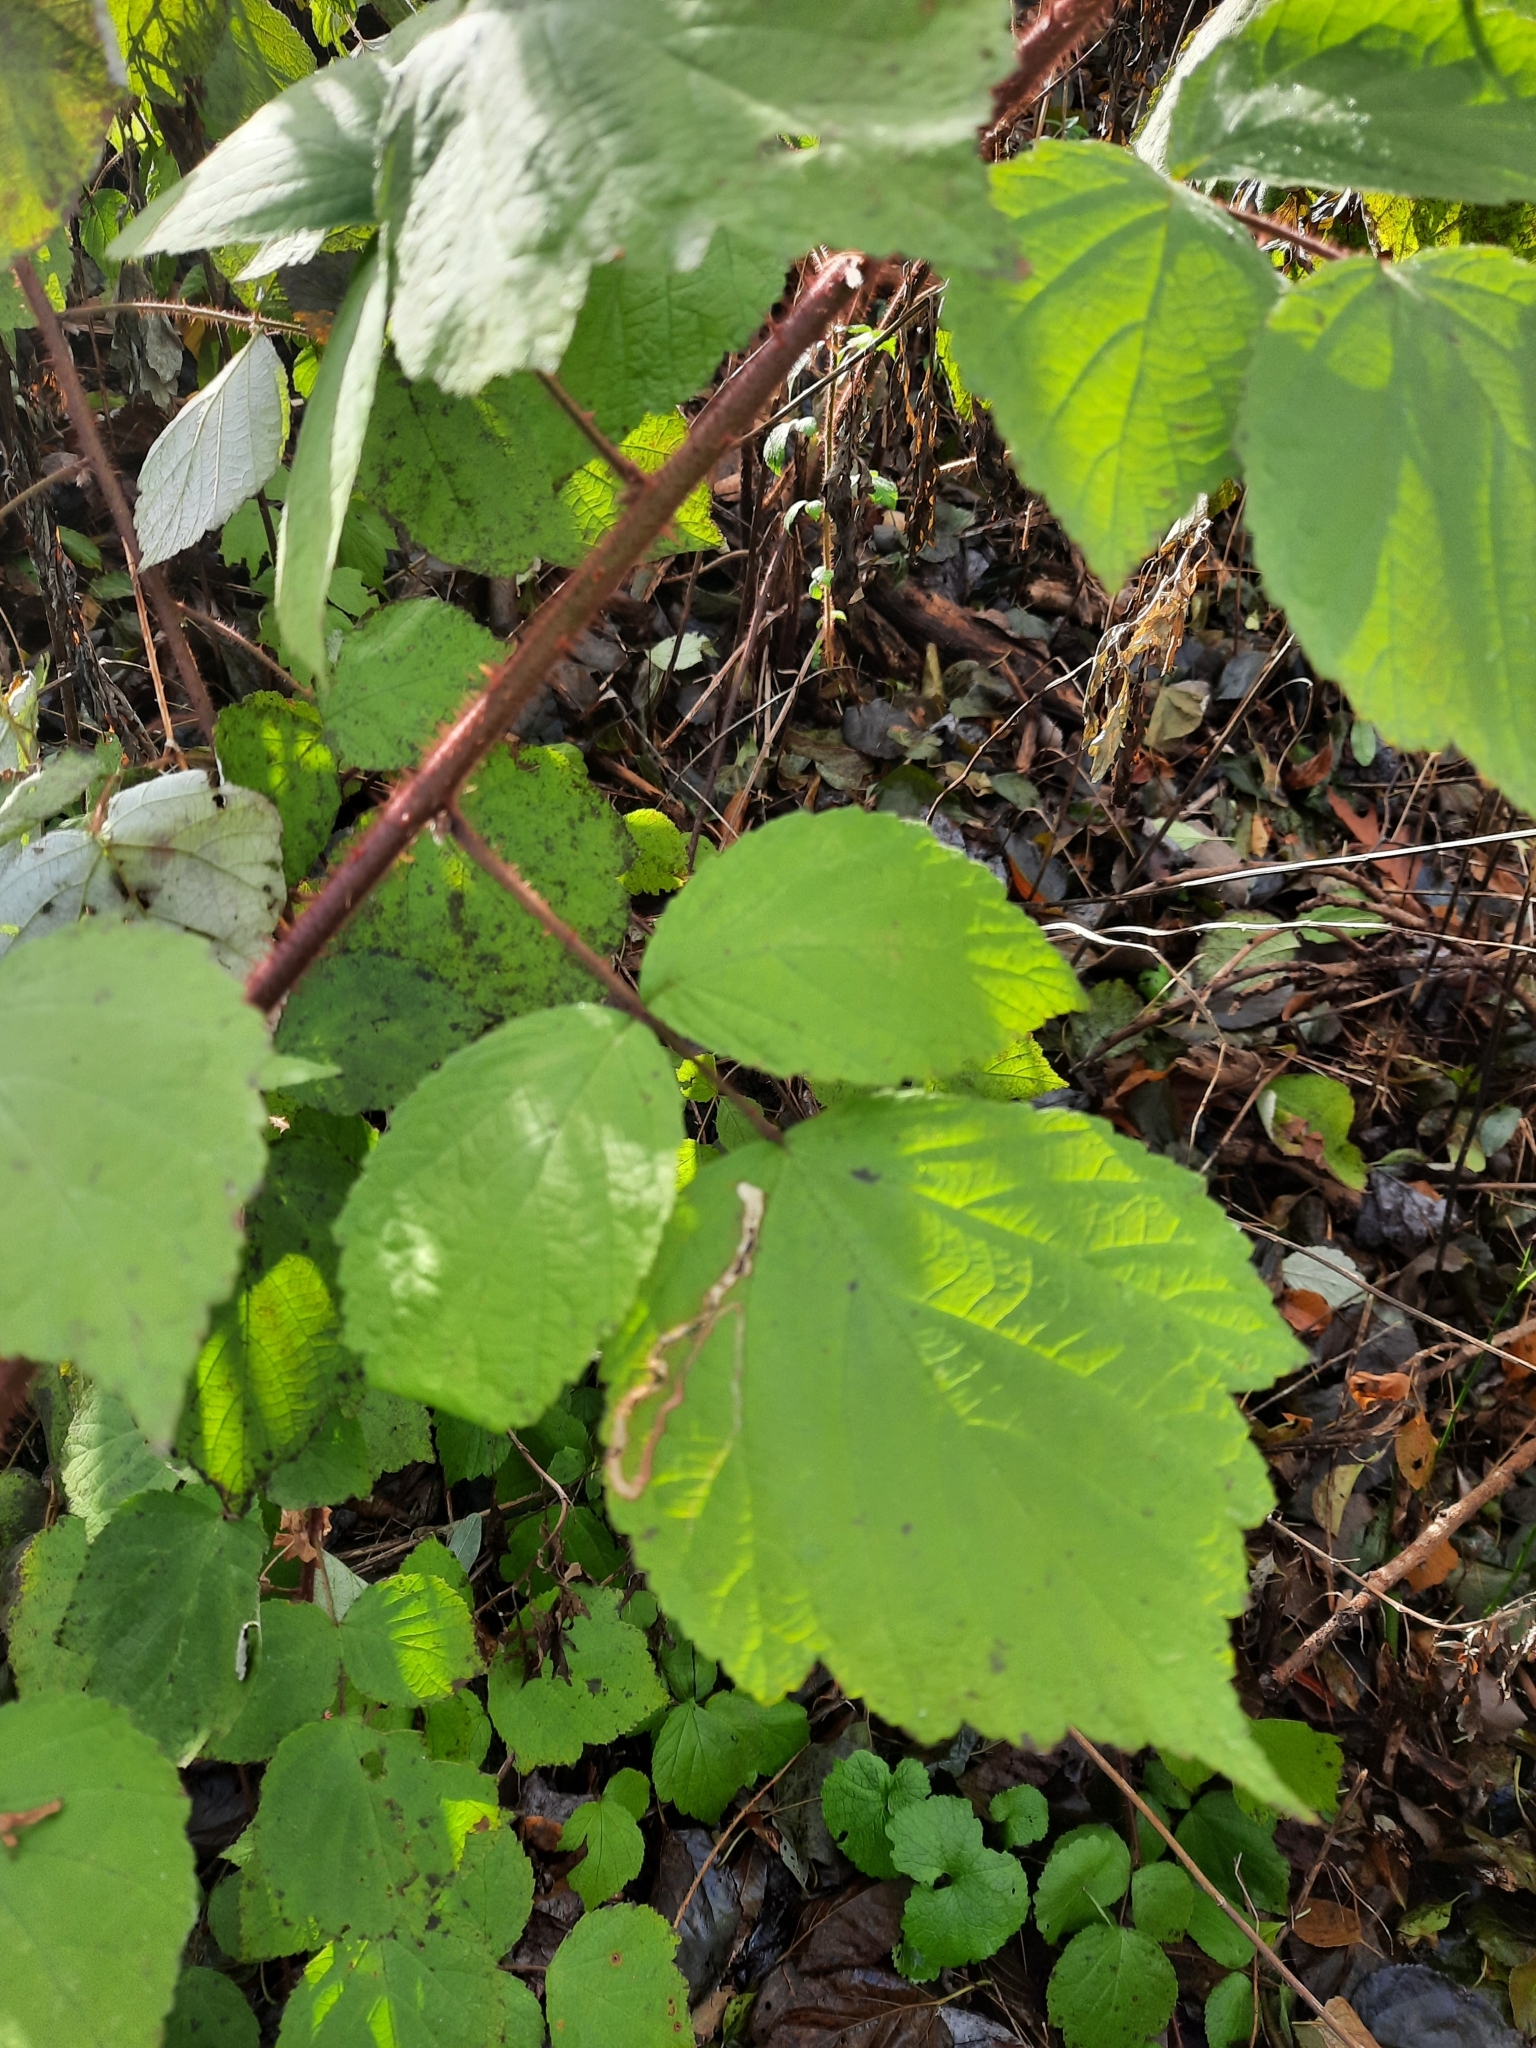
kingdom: Plantae
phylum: Tracheophyta
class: Magnoliopsida
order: Rosales
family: Rosaceae
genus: Rubus
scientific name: Rubus phoenicolasius
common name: Japanese wineberry
